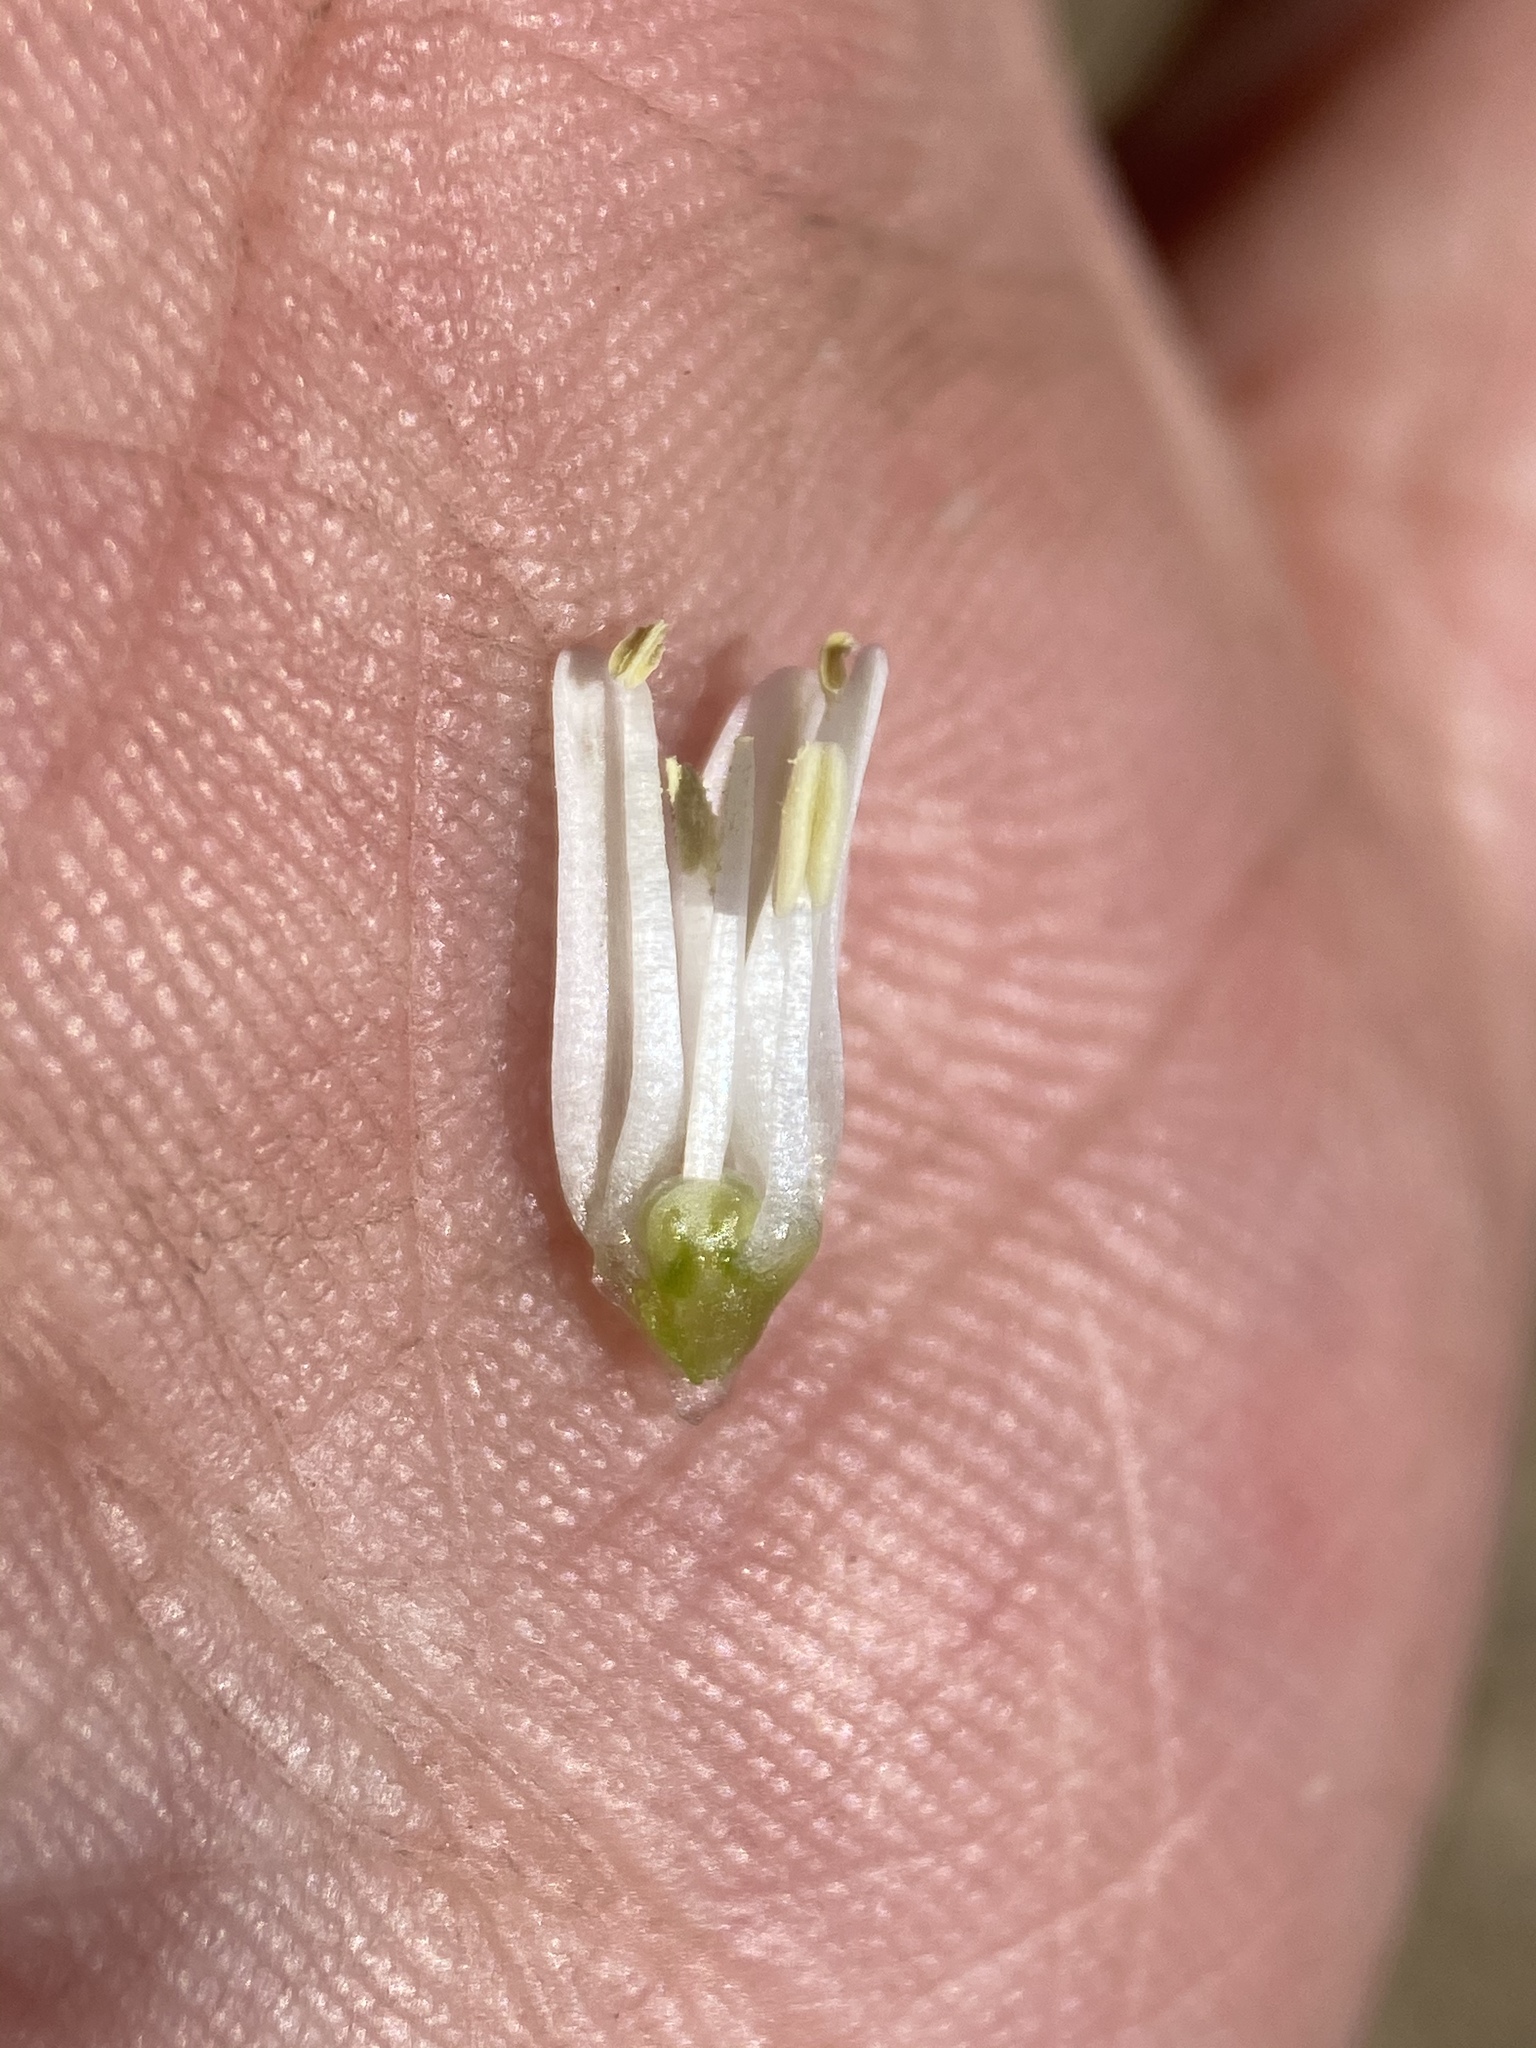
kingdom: Plantae
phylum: Tracheophyta
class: Liliopsida
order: Asparagales
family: Amaryllidaceae
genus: Allium
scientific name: Allium parvum
